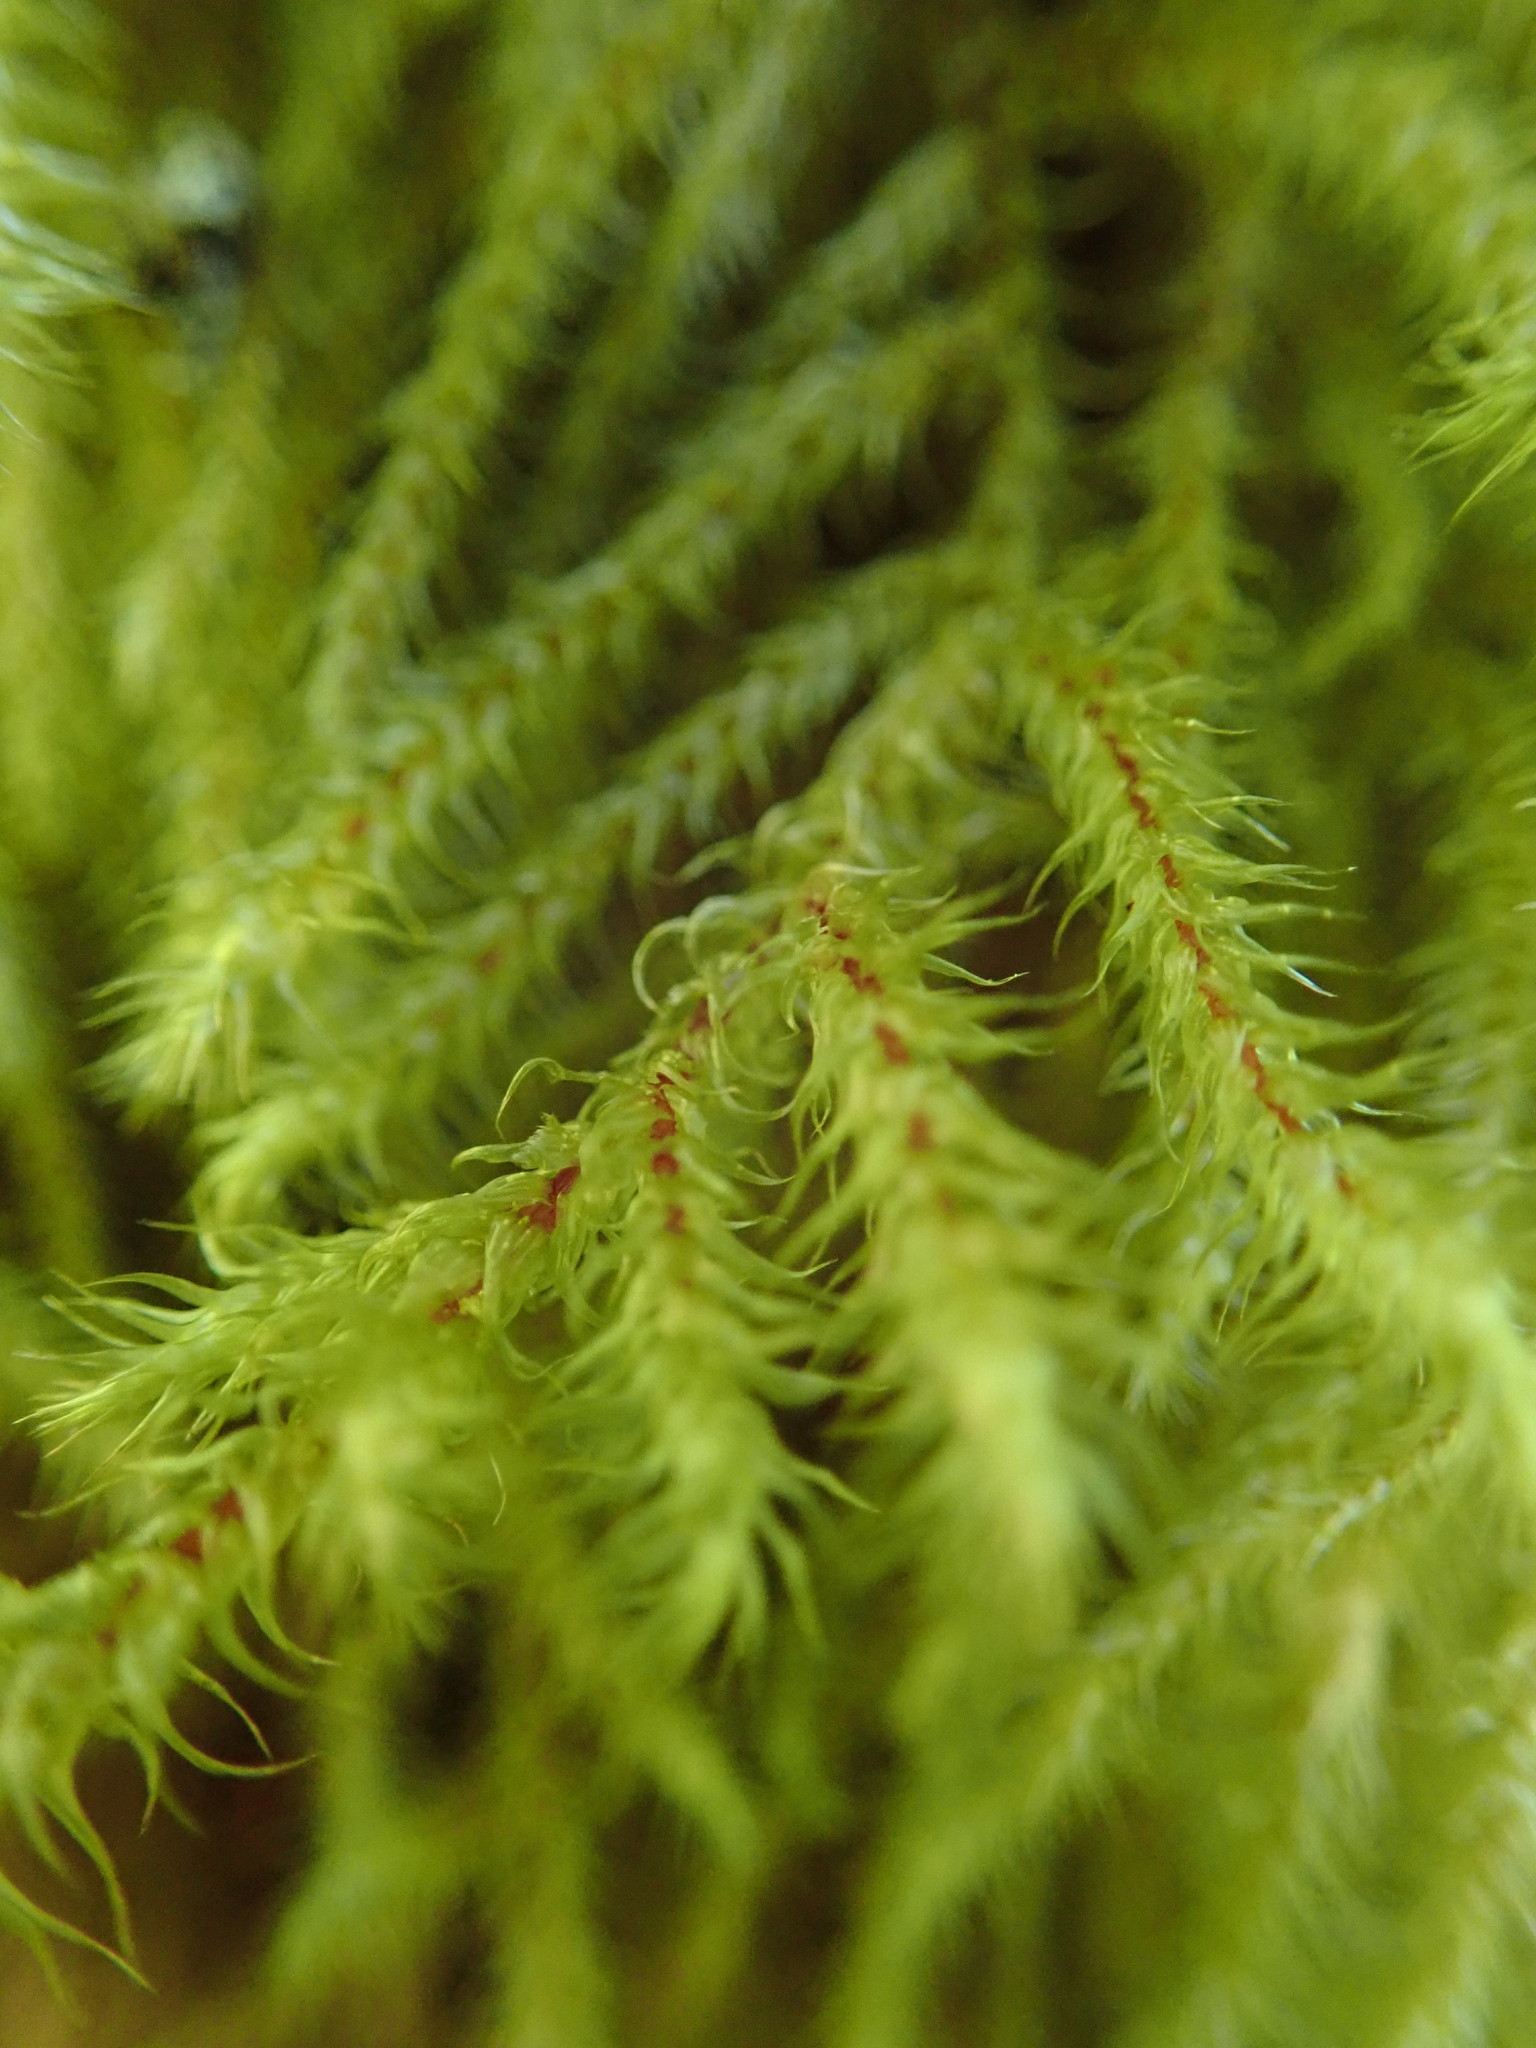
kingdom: Plantae
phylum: Bryophyta
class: Bryopsida
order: Hypnales
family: Hylocomiaceae
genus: Rhytidiadelphus
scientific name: Rhytidiadelphus loreus
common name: Lanky moss
